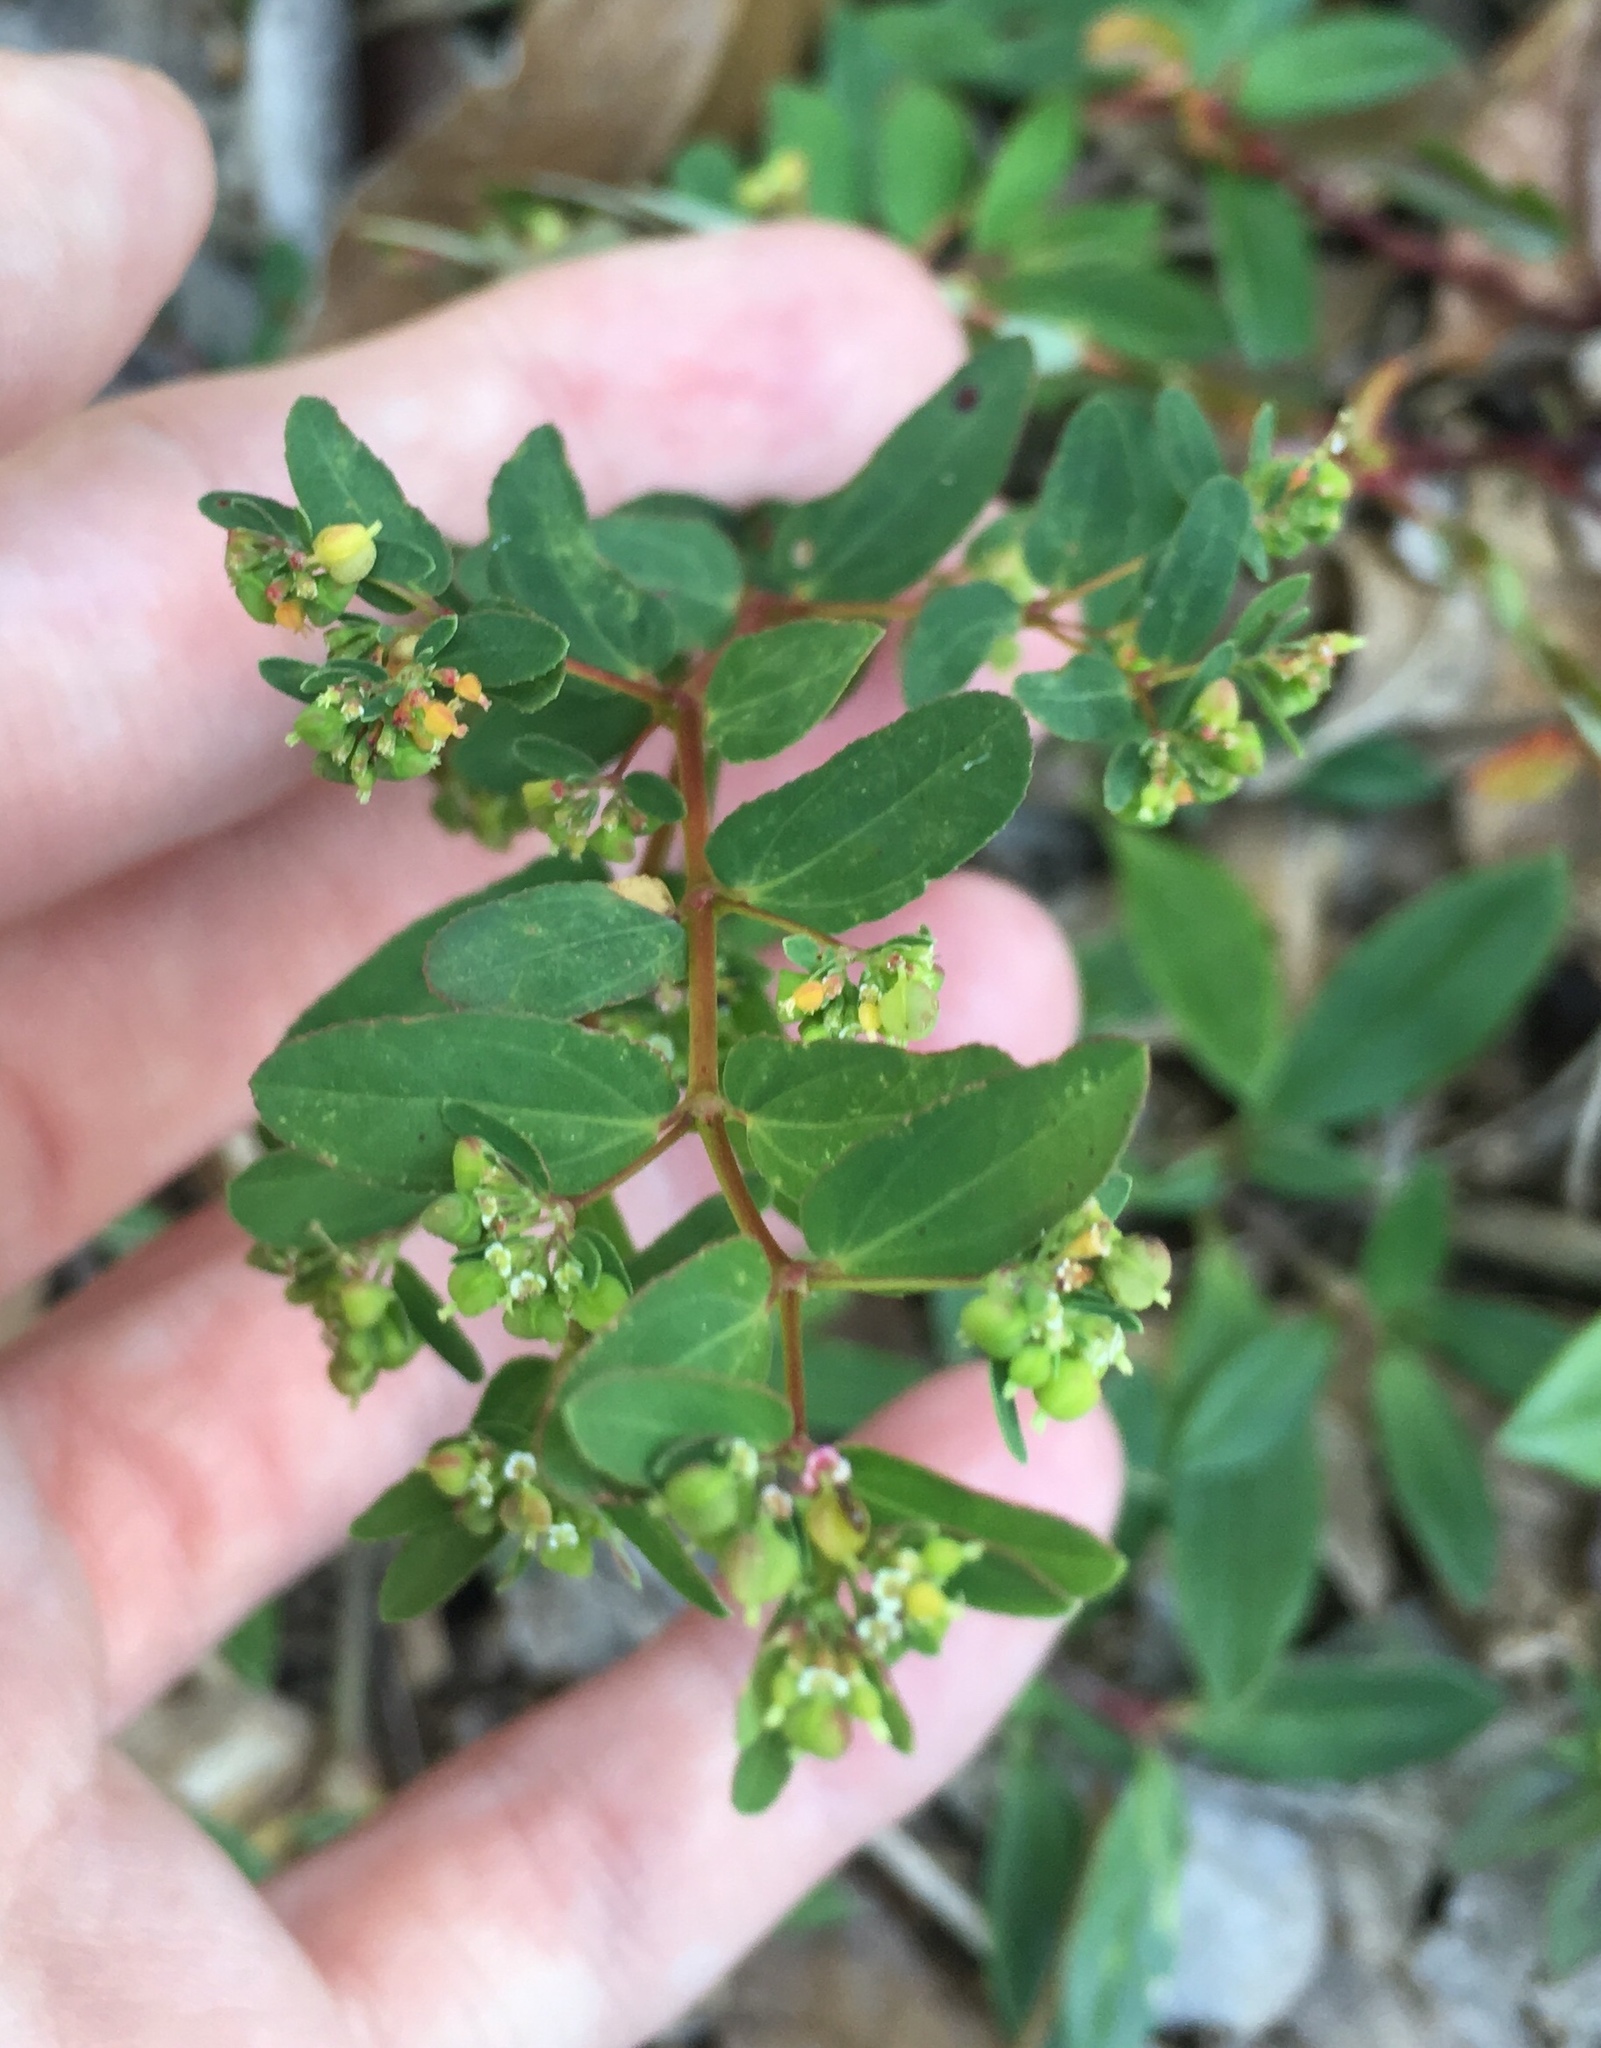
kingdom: Plantae
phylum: Tracheophyta
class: Magnoliopsida
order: Malpighiales
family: Euphorbiaceae
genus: Euphorbia
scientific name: Euphorbia hyssopifolia
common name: Hyssopleaf sandmat
